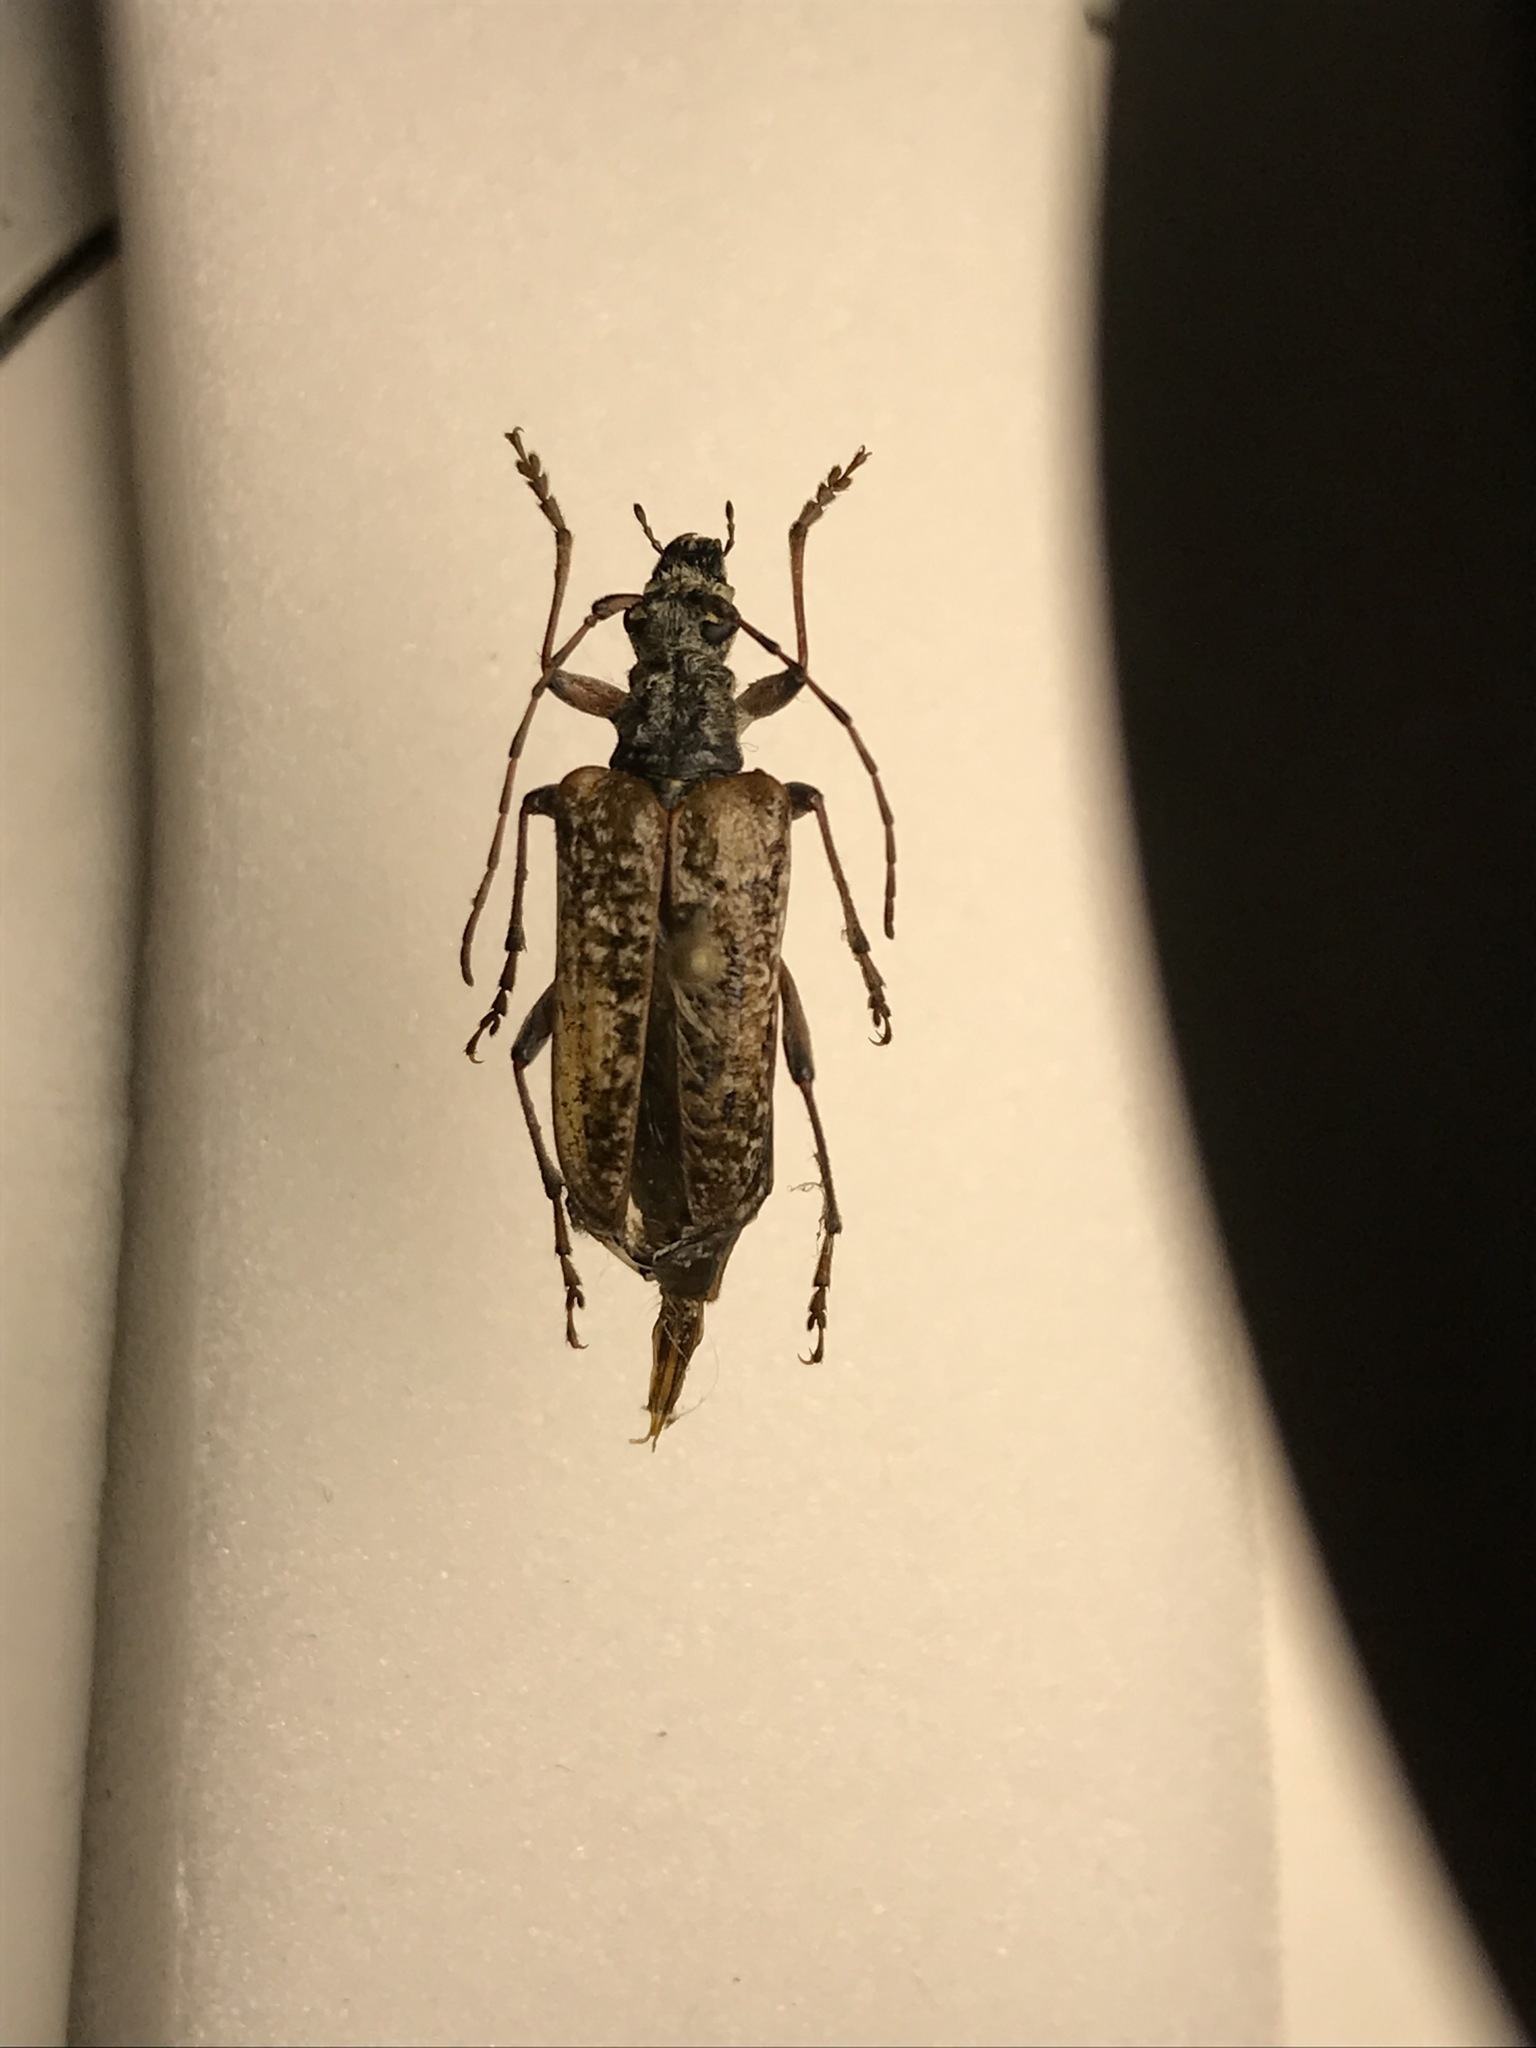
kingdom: Animalia
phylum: Arthropoda
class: Insecta
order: Coleoptera
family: Cerambycidae
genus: Anthophylax
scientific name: Anthophylax attenuatus
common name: Mottled longhorned beetle
